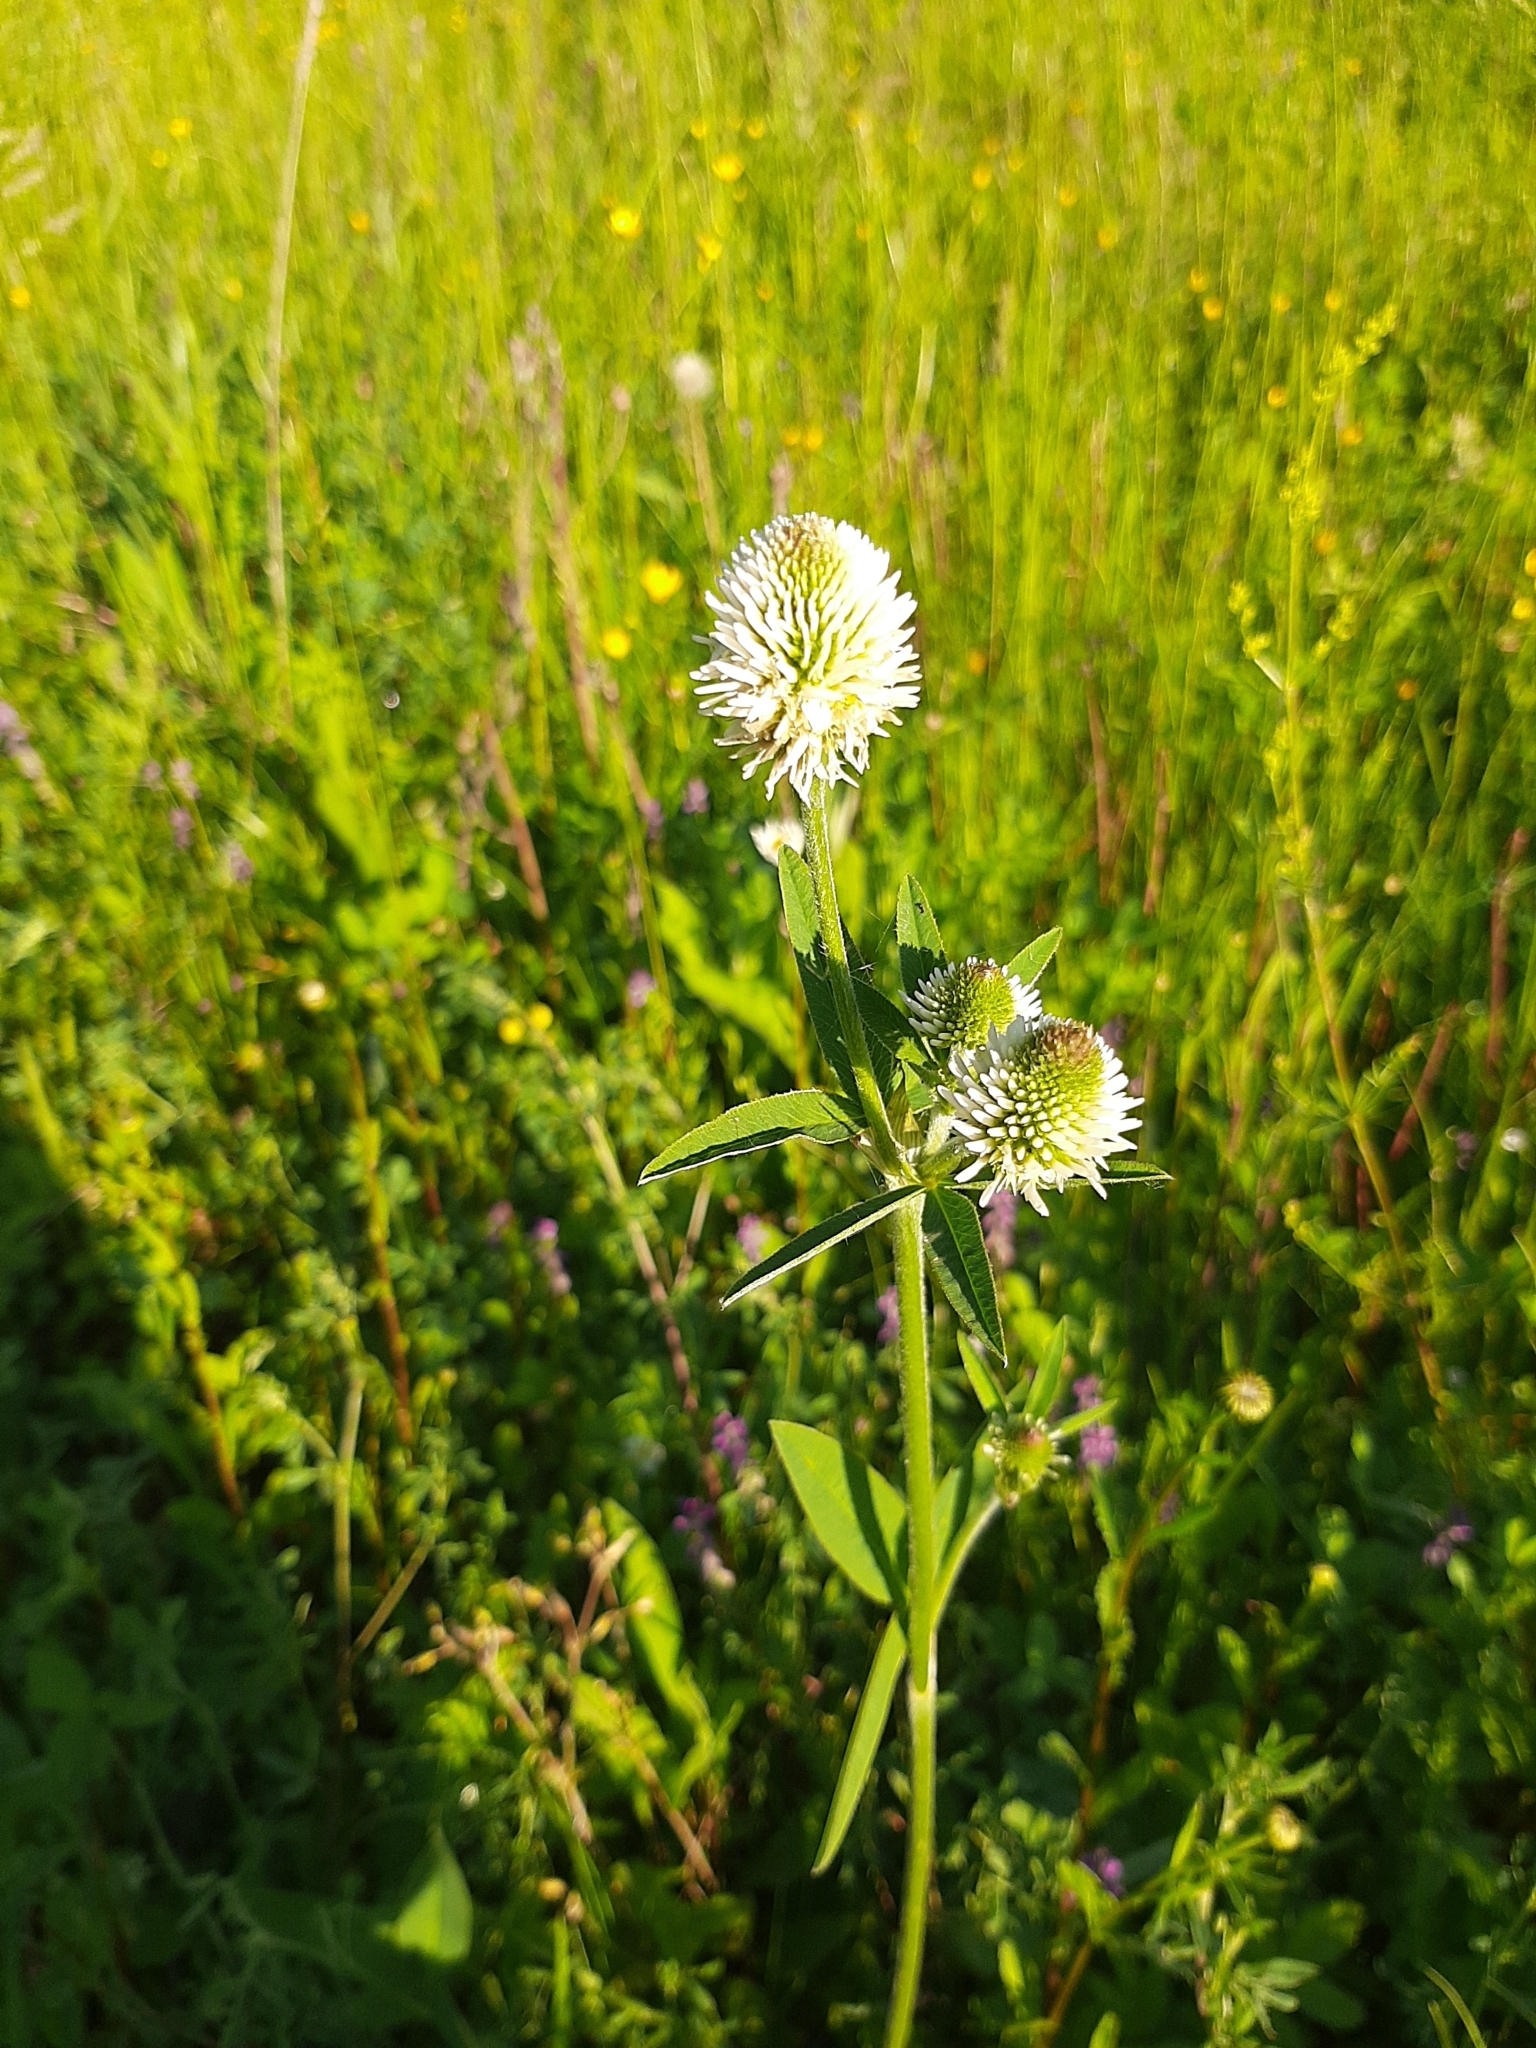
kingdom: Plantae
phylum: Tracheophyta
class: Magnoliopsida
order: Fabales
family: Fabaceae
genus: Trifolium
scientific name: Trifolium montanum
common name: Mountain clover
